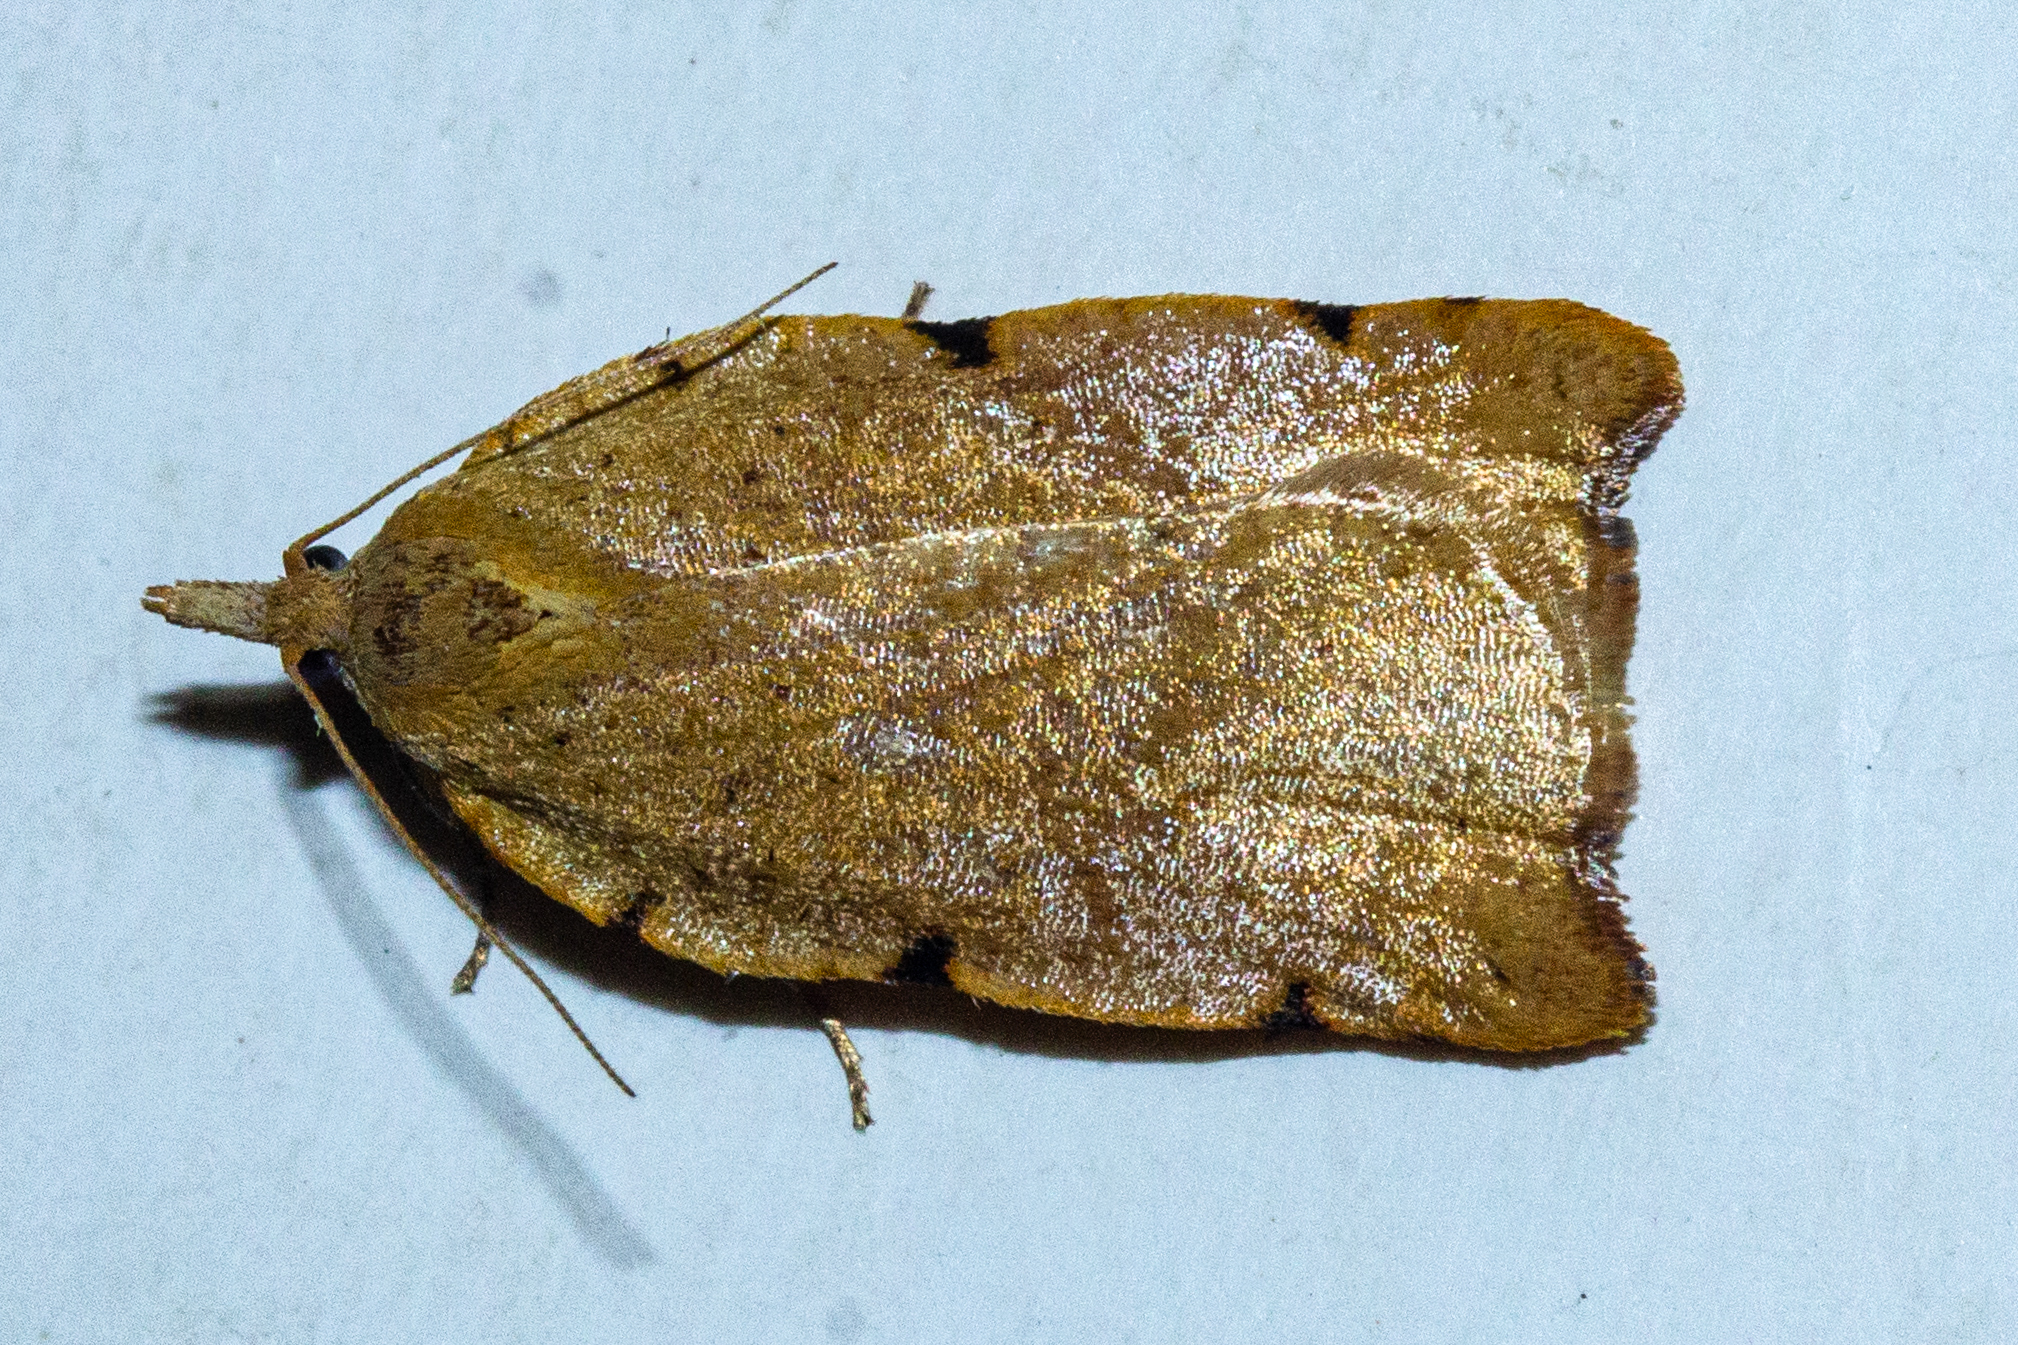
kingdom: Animalia
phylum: Arthropoda
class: Insecta
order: Lepidoptera
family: Tortricidae
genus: Apoctena
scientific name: Apoctena flavescens
